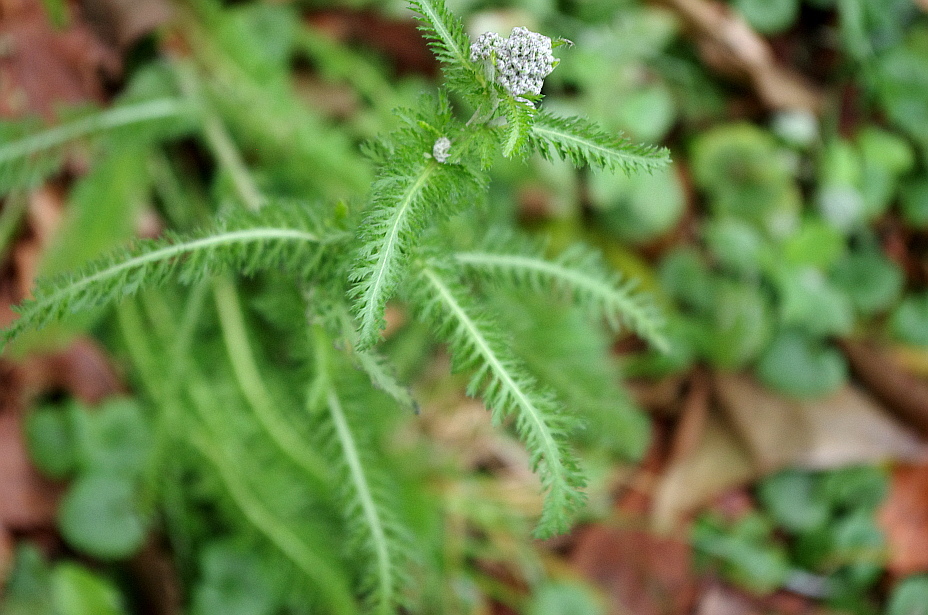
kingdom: Plantae
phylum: Tracheophyta
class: Magnoliopsida
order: Asterales
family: Asteraceae
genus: Achillea
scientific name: Achillea millefolium
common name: Yarrow
